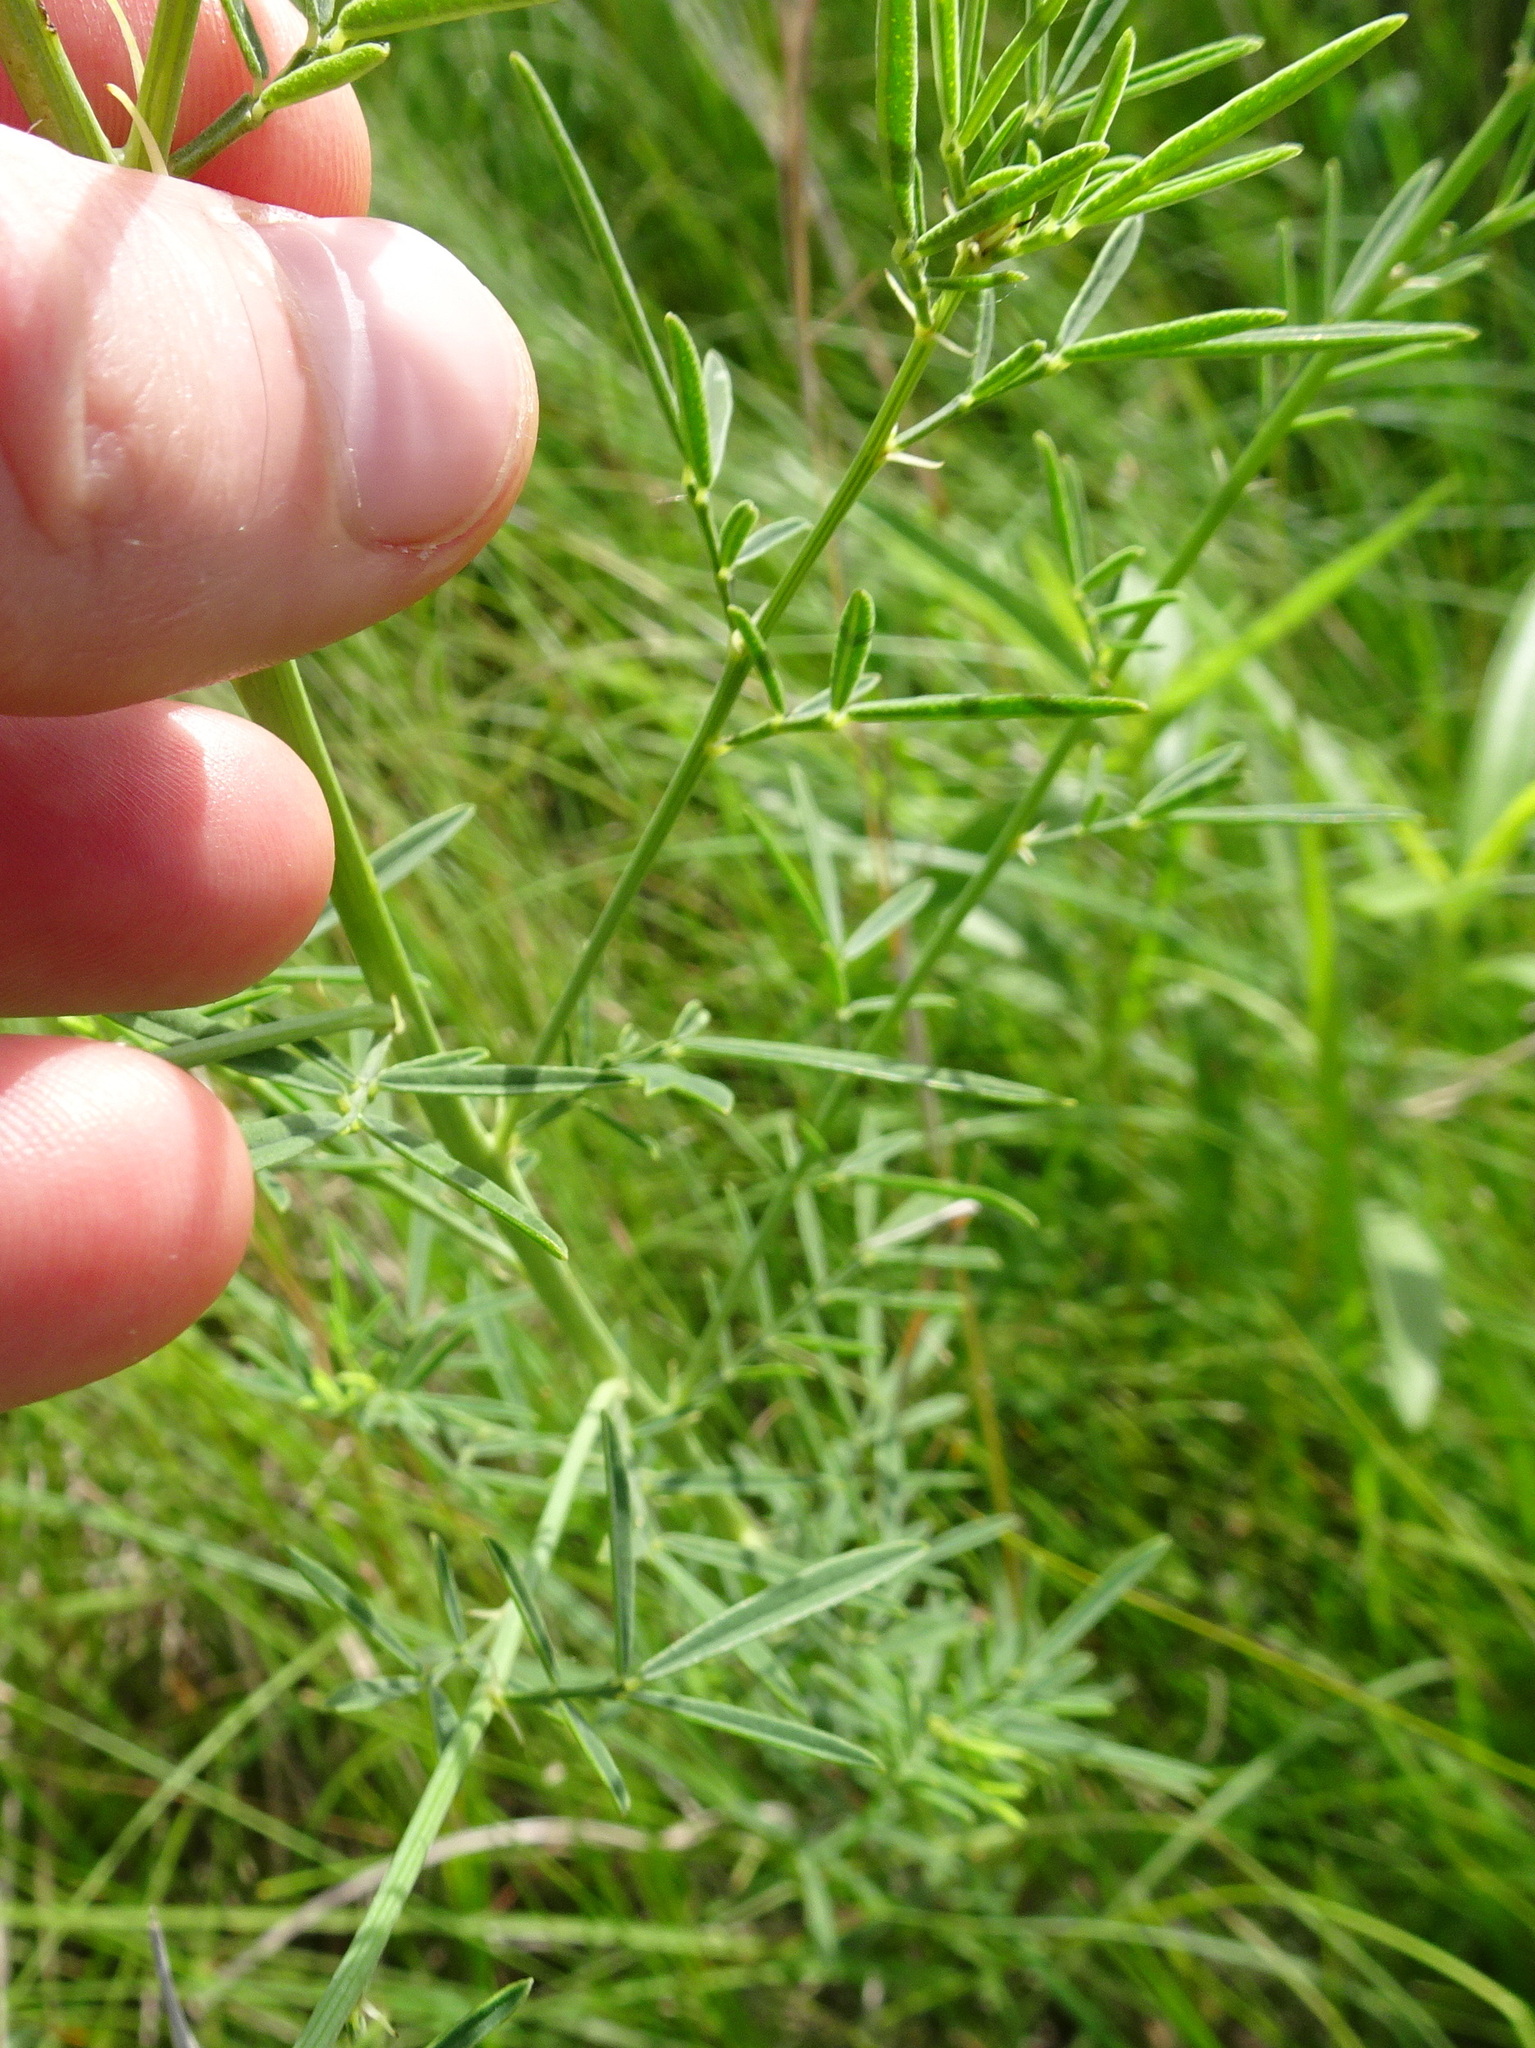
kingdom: Plantae
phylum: Tracheophyta
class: Magnoliopsida
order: Fabales
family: Fabaceae
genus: Dalea
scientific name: Dalea candida
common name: White prairie-clover
